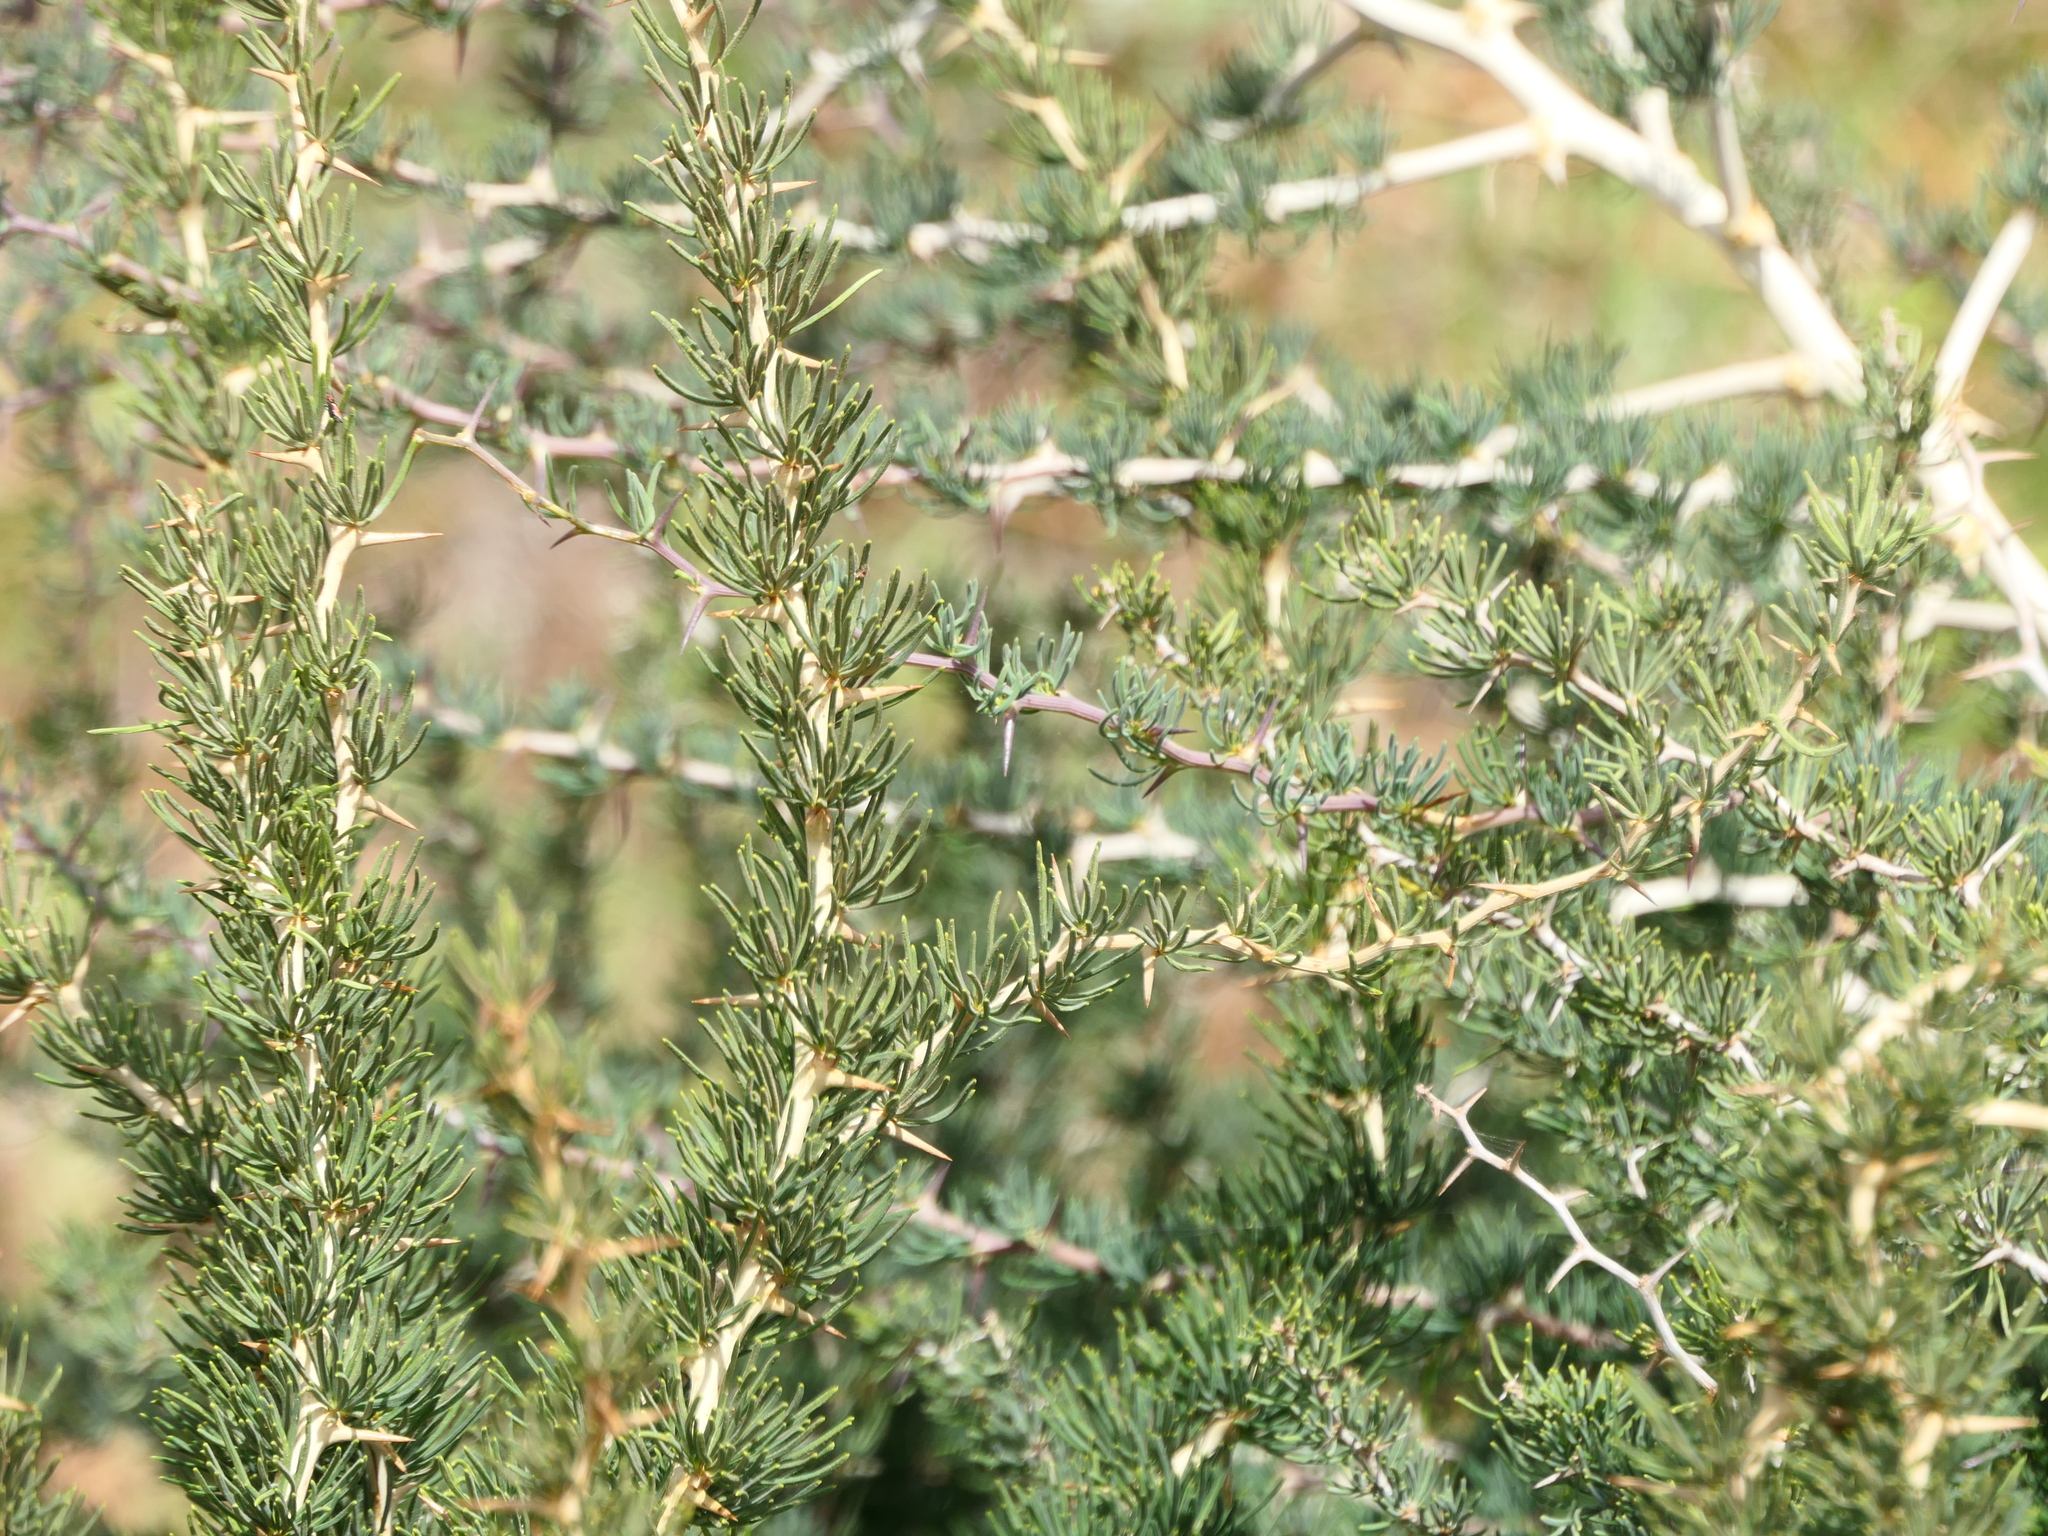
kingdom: Plantae
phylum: Tracheophyta
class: Liliopsida
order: Asparagales
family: Asparagaceae
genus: Asparagus
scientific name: Asparagus albus
